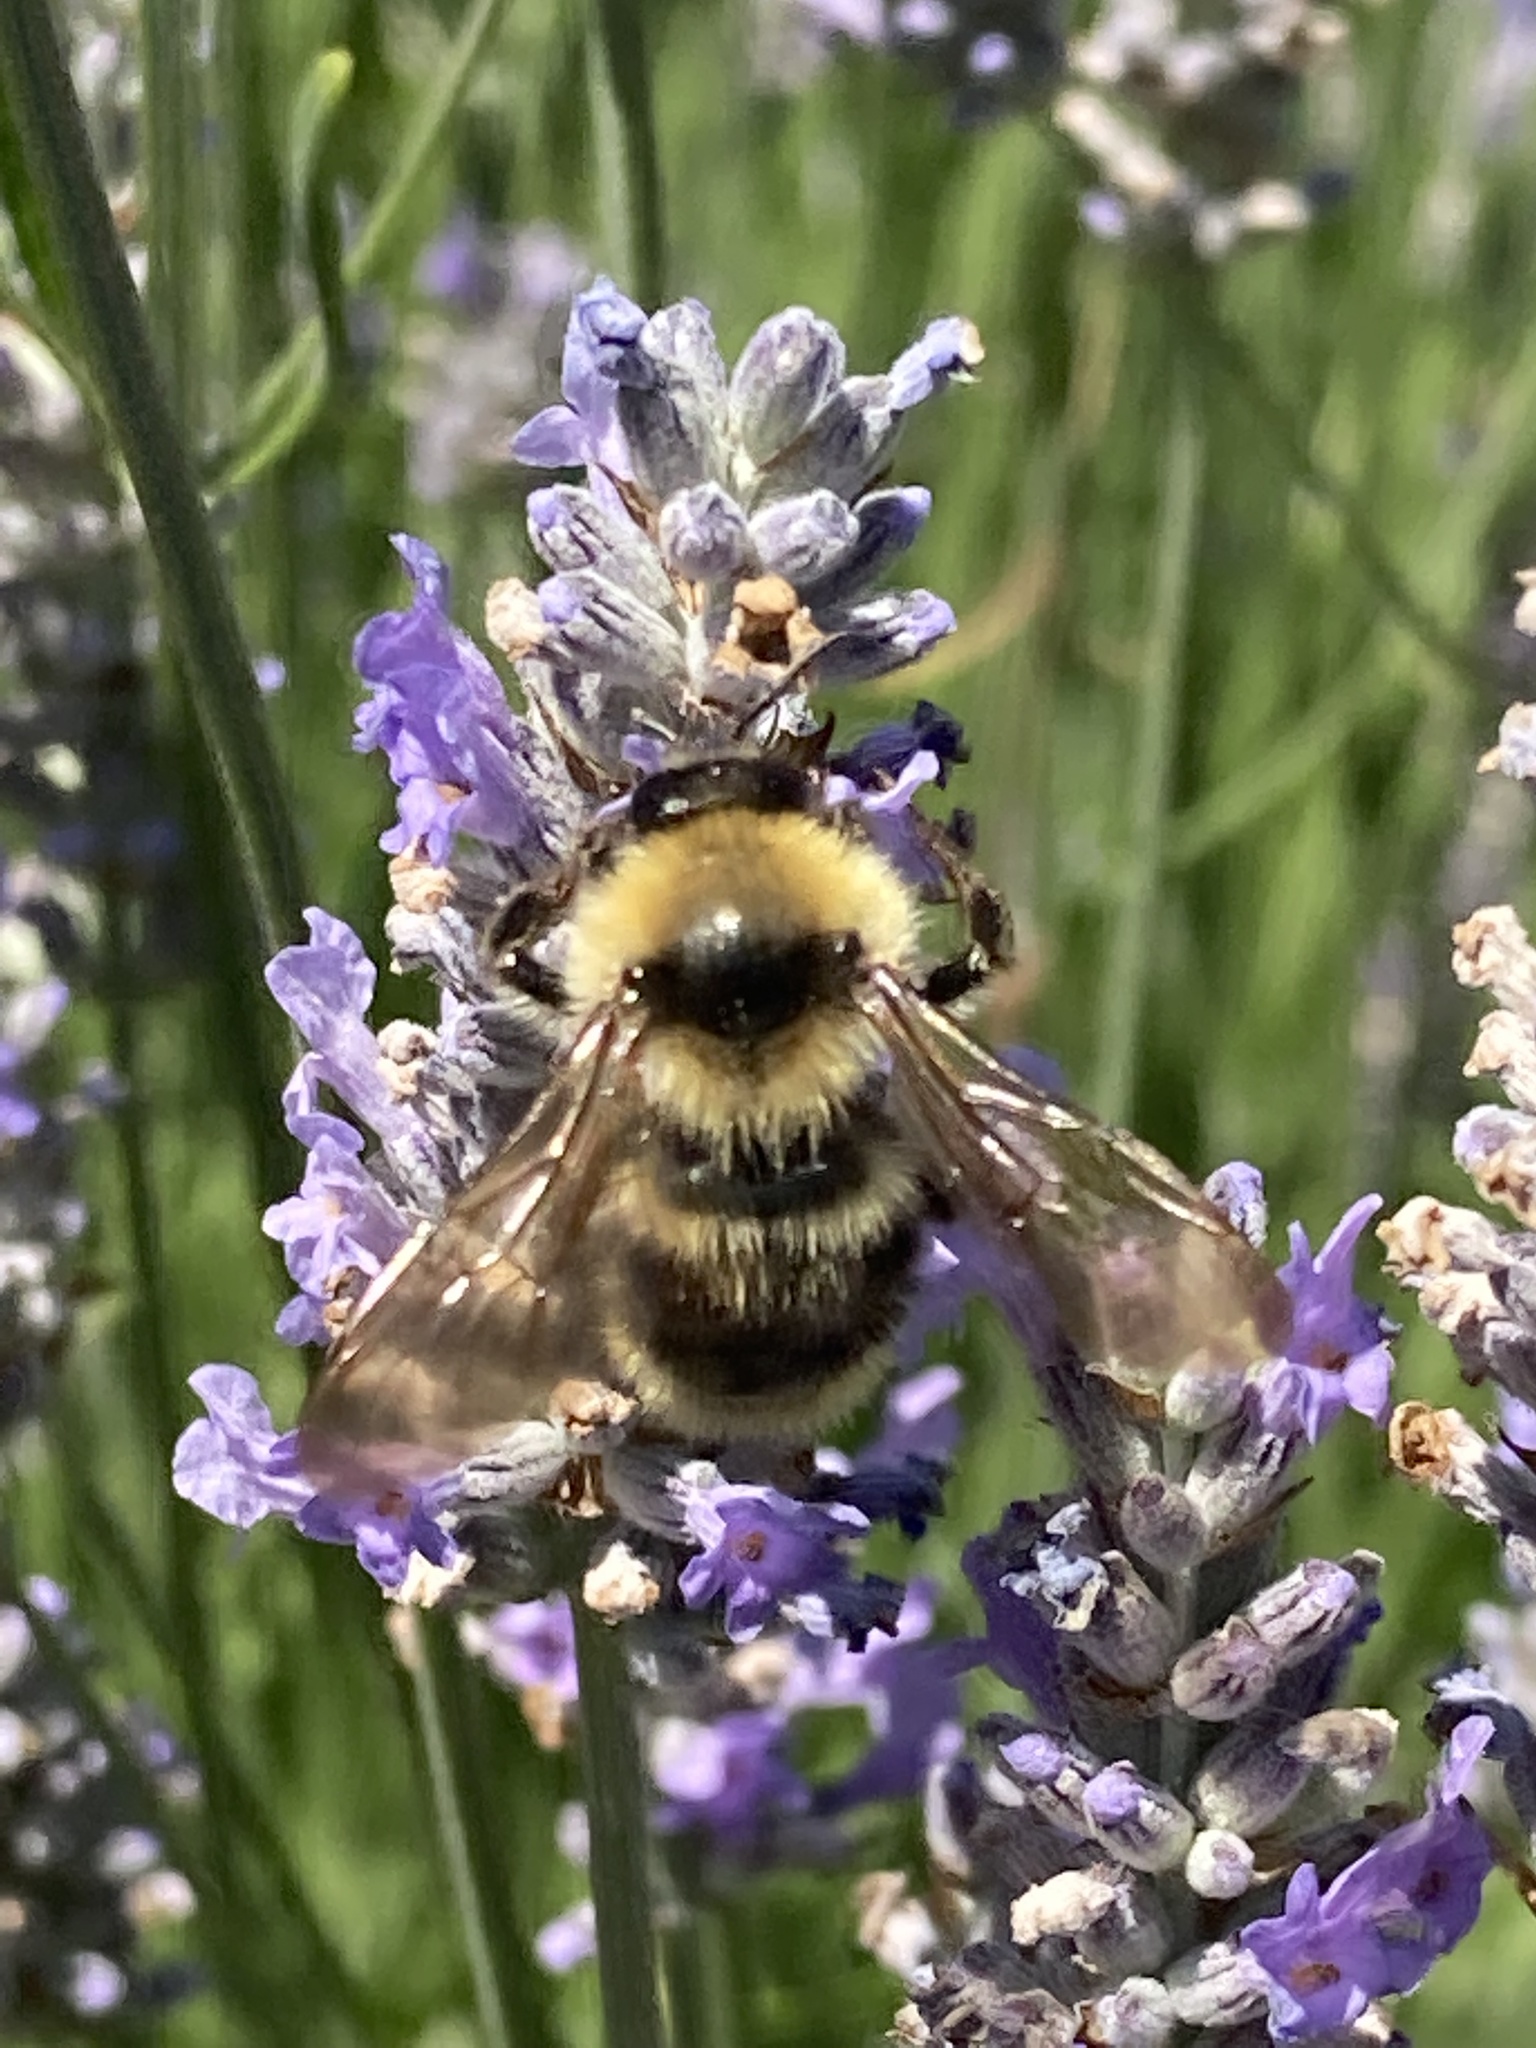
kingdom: Animalia
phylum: Arthropoda
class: Insecta
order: Hymenoptera
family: Apidae
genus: Bombus
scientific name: Bombus californicus
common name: California bumble bee
